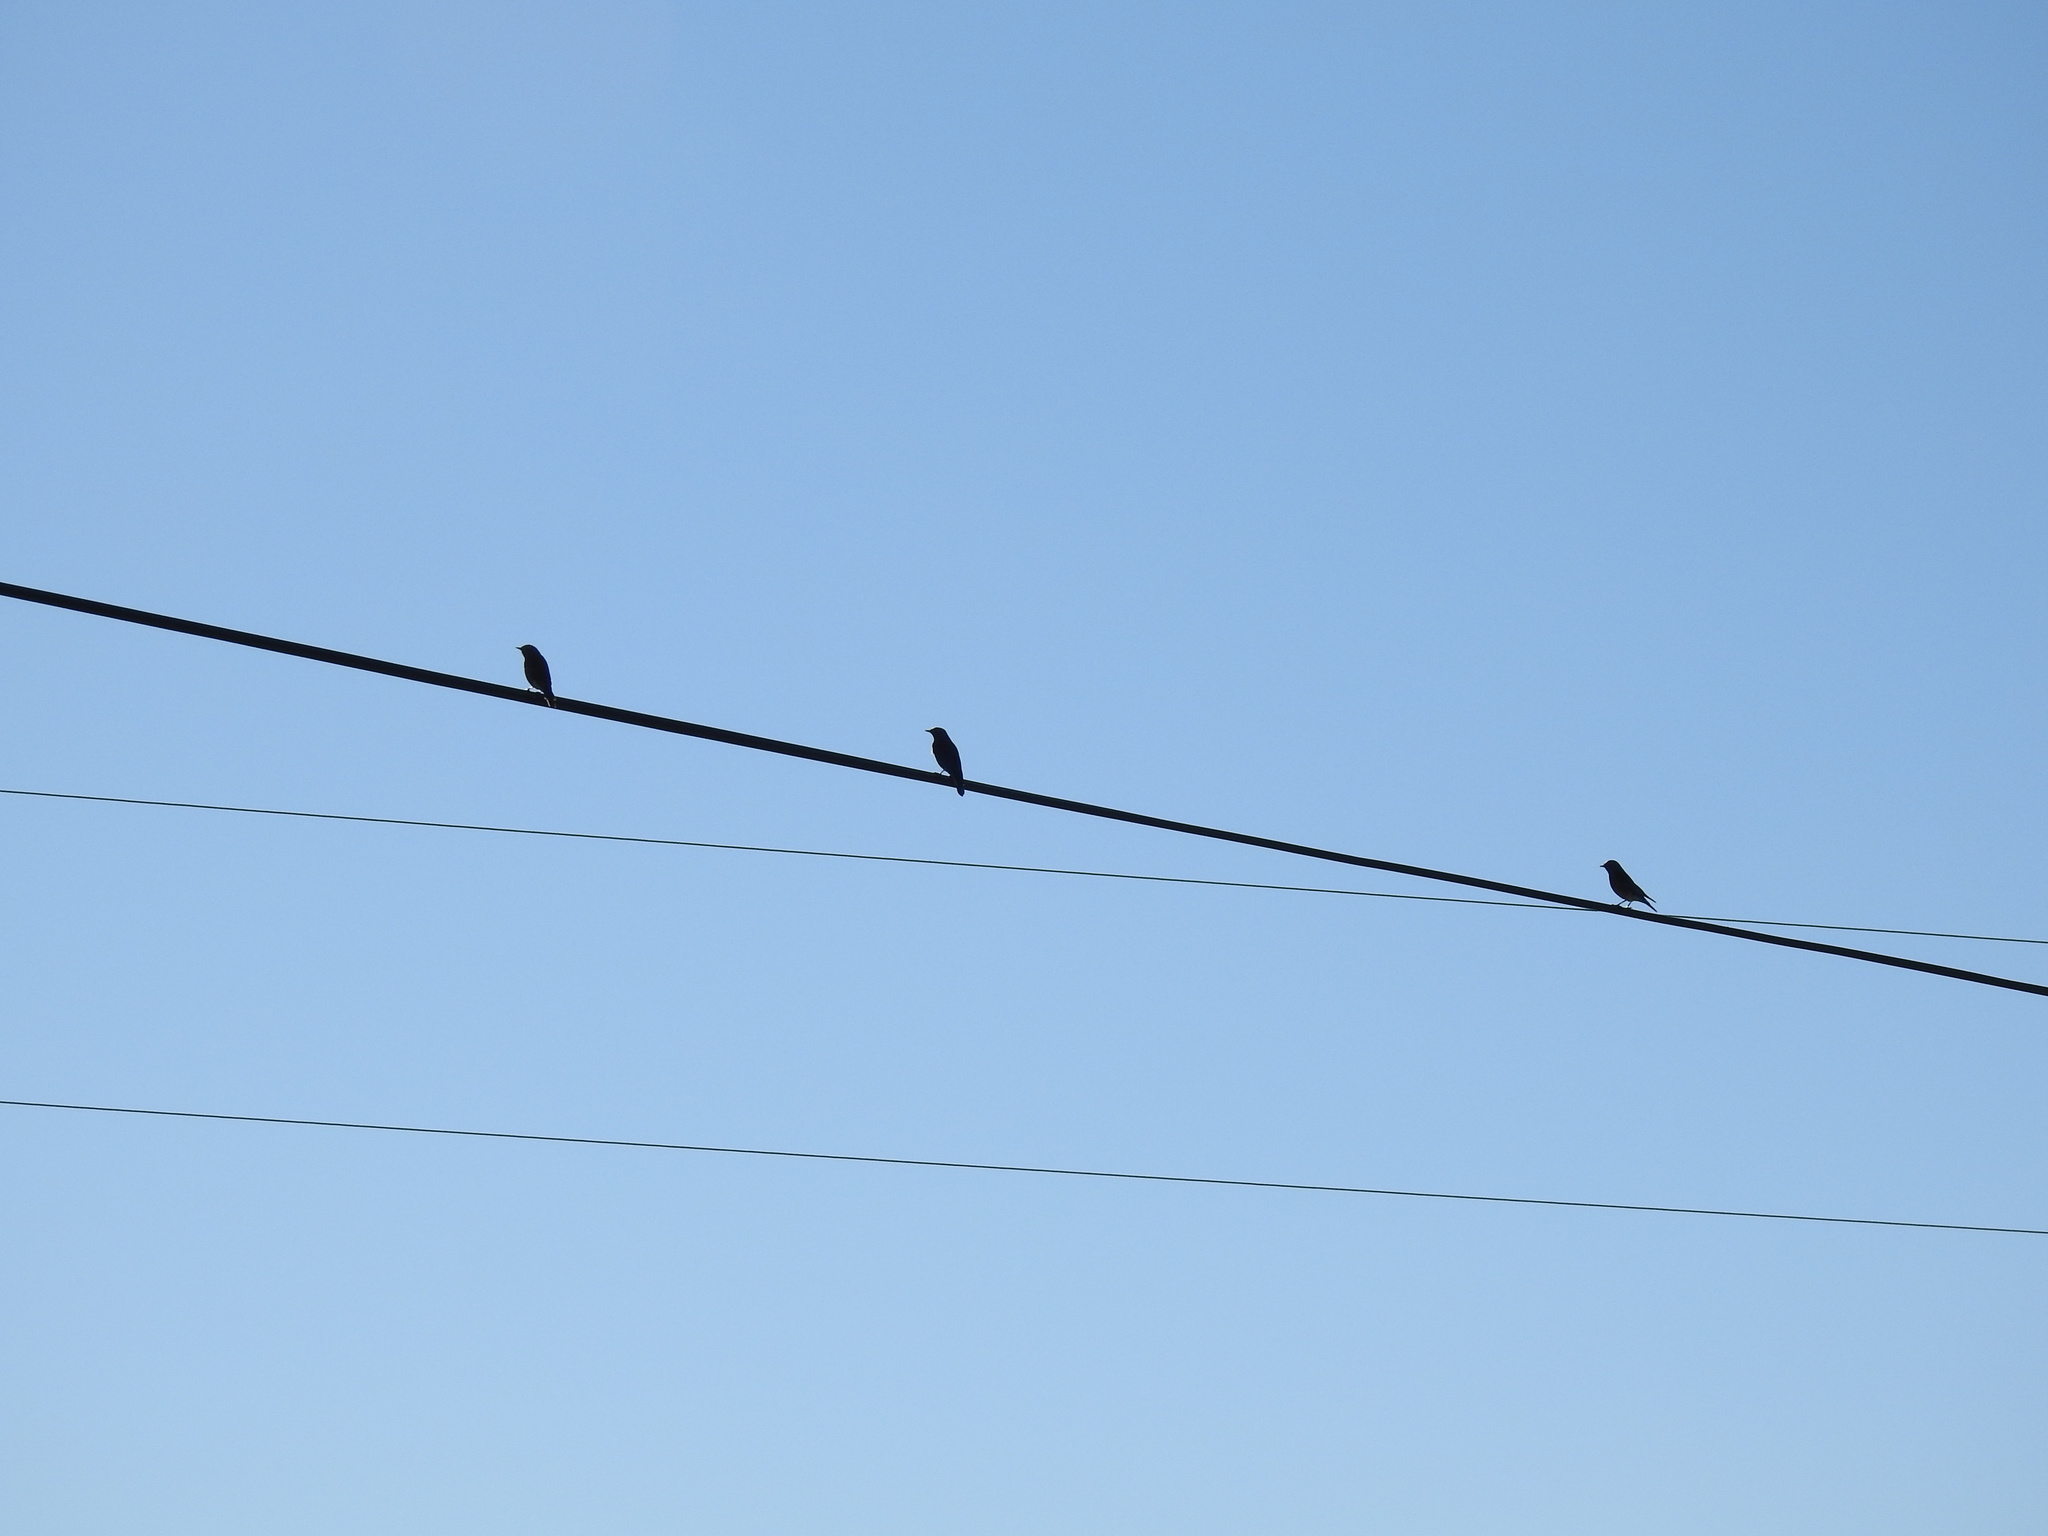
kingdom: Animalia
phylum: Chordata
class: Aves
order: Passeriformes
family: Turdidae
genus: Sialia
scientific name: Sialia mexicana
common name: Western bluebird
